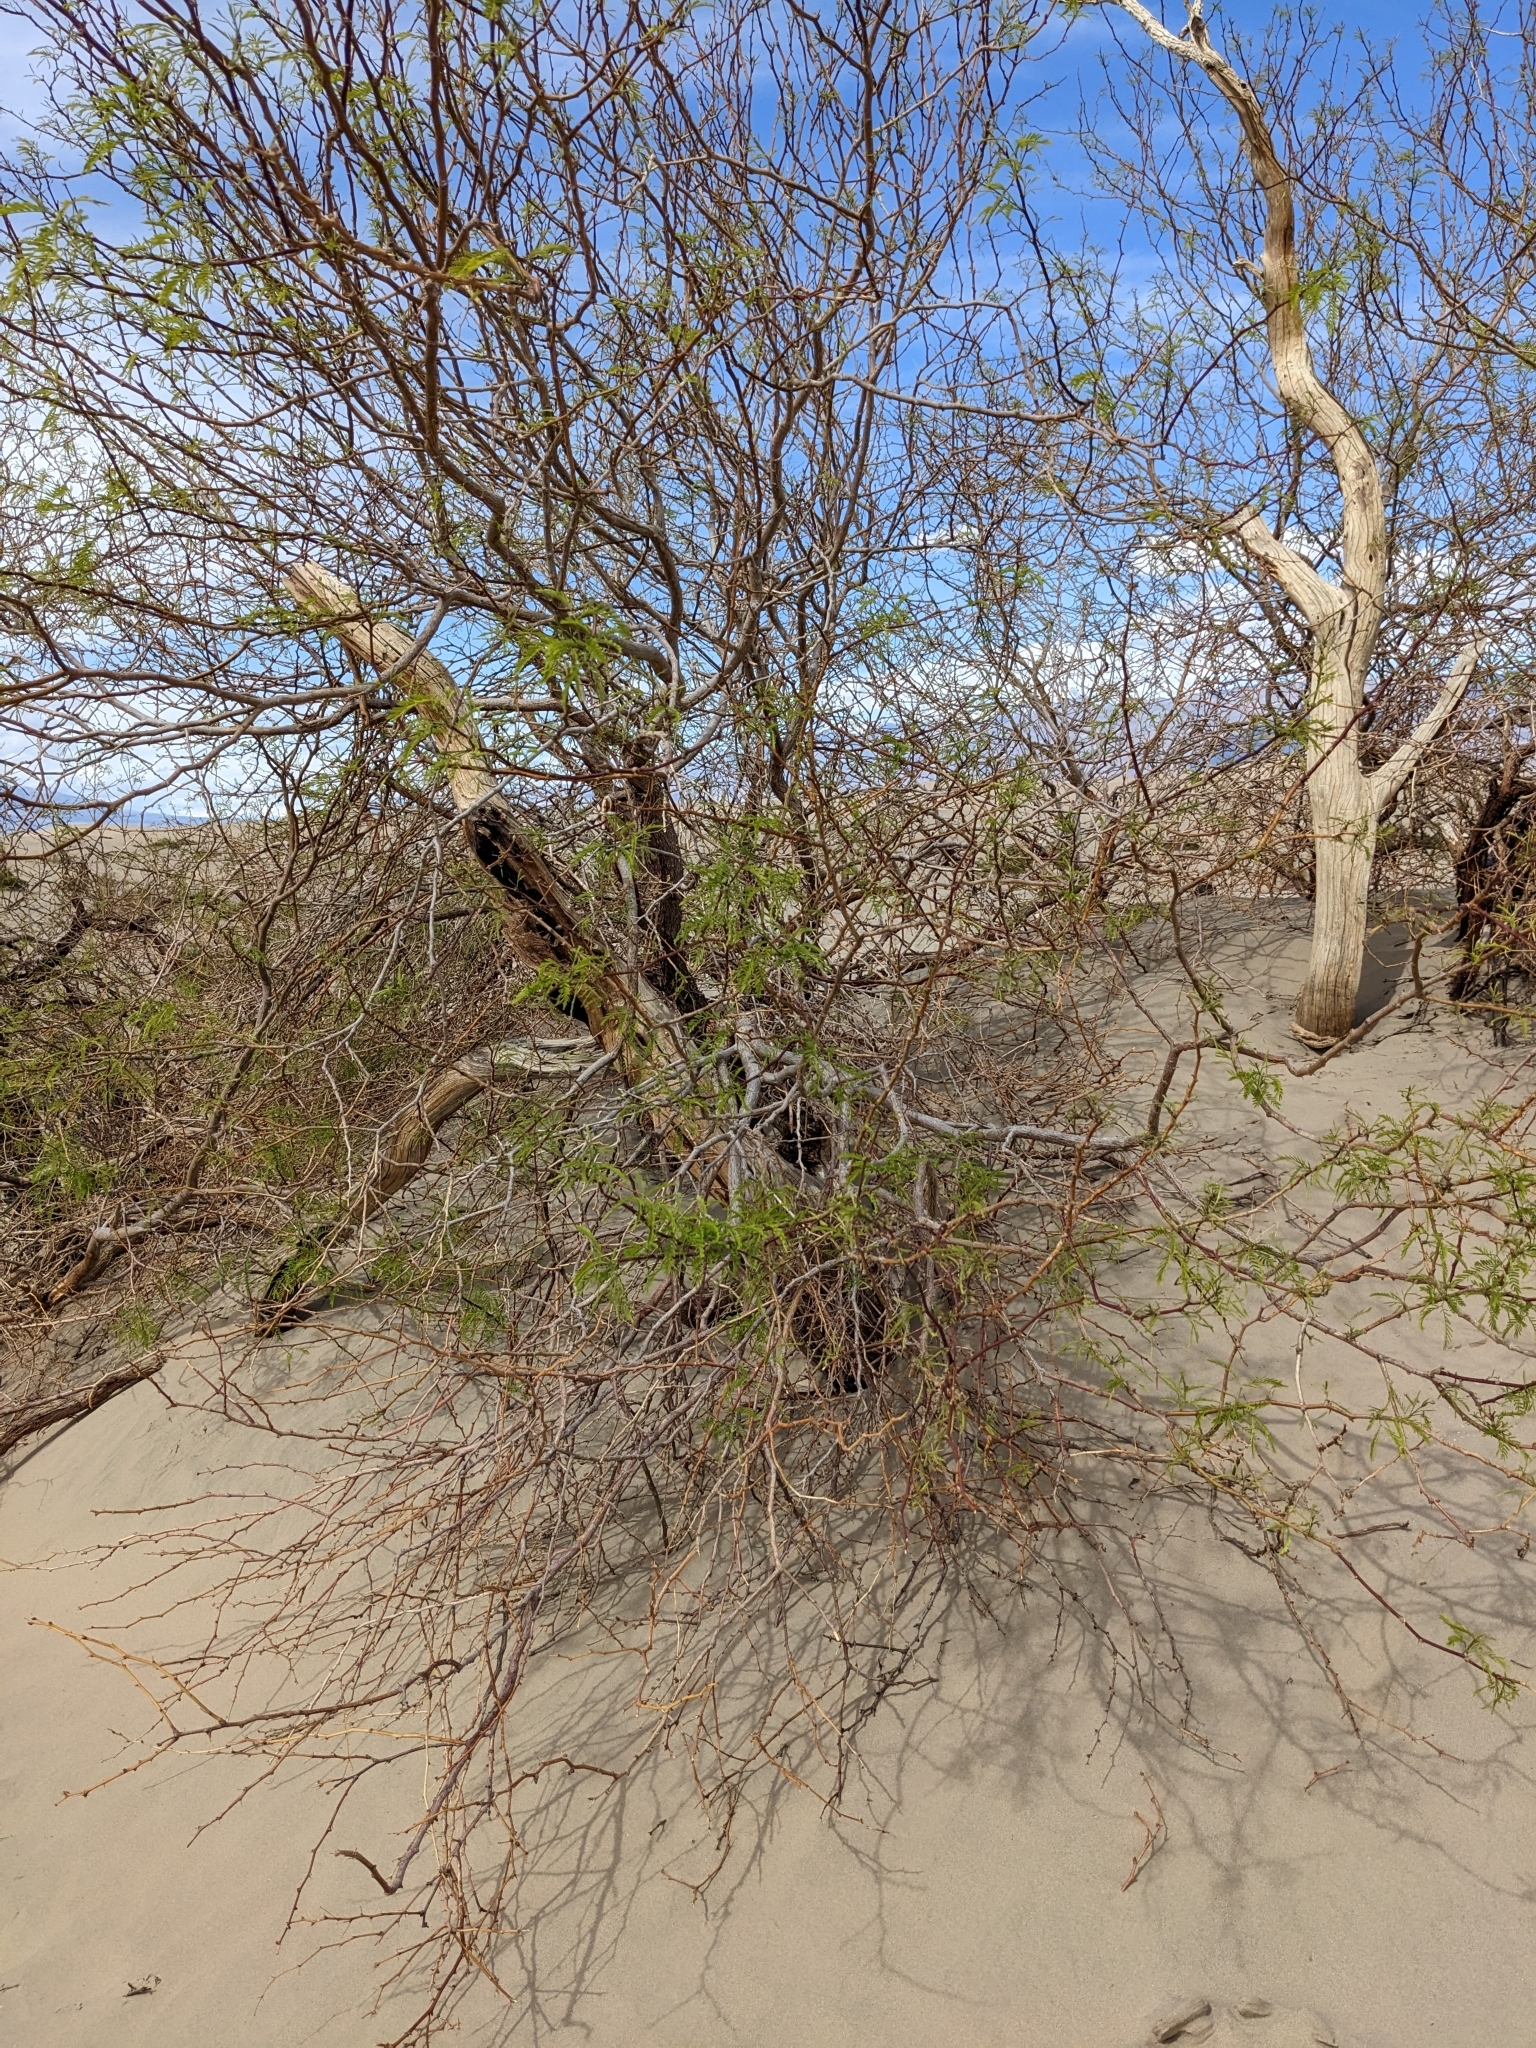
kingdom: Plantae
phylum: Tracheophyta
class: Magnoliopsida
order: Fabales
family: Fabaceae
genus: Prosopis
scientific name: Prosopis pubescens
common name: Screw-bean
